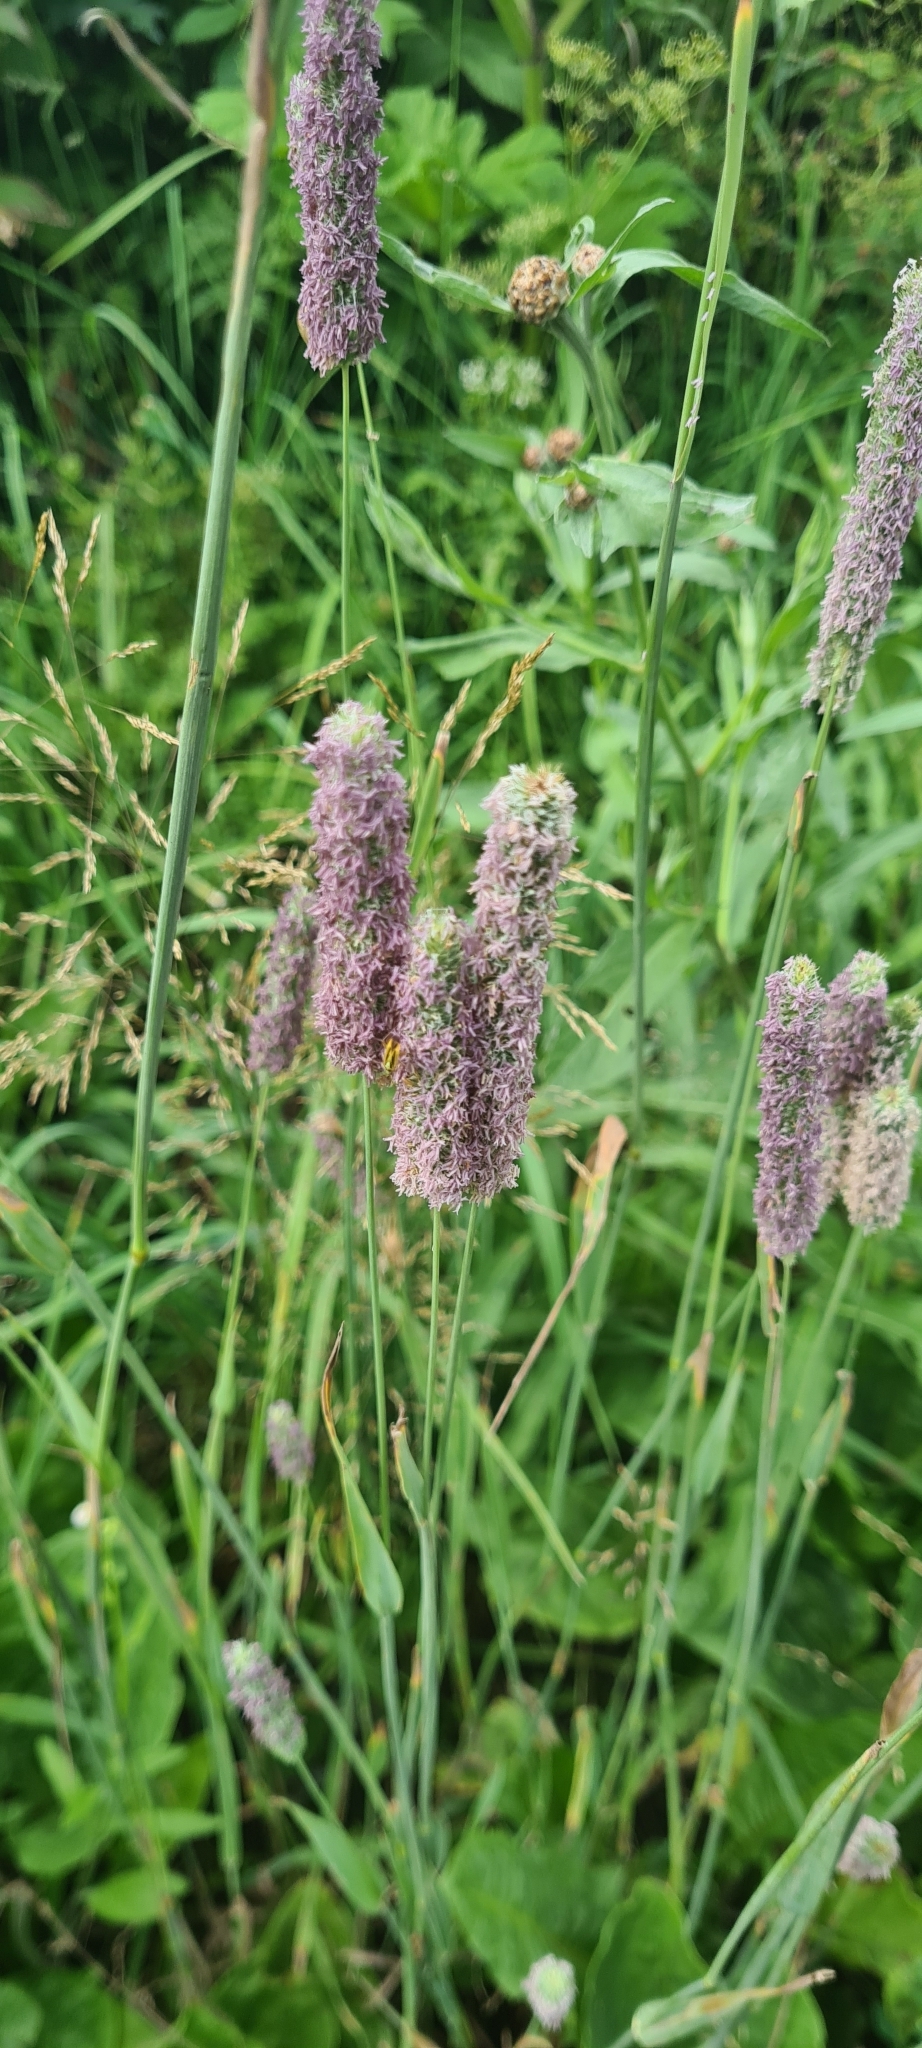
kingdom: Plantae
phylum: Tracheophyta
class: Liliopsida
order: Poales
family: Poaceae
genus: Phleum
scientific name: Phleum pratense
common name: Timothy grass
